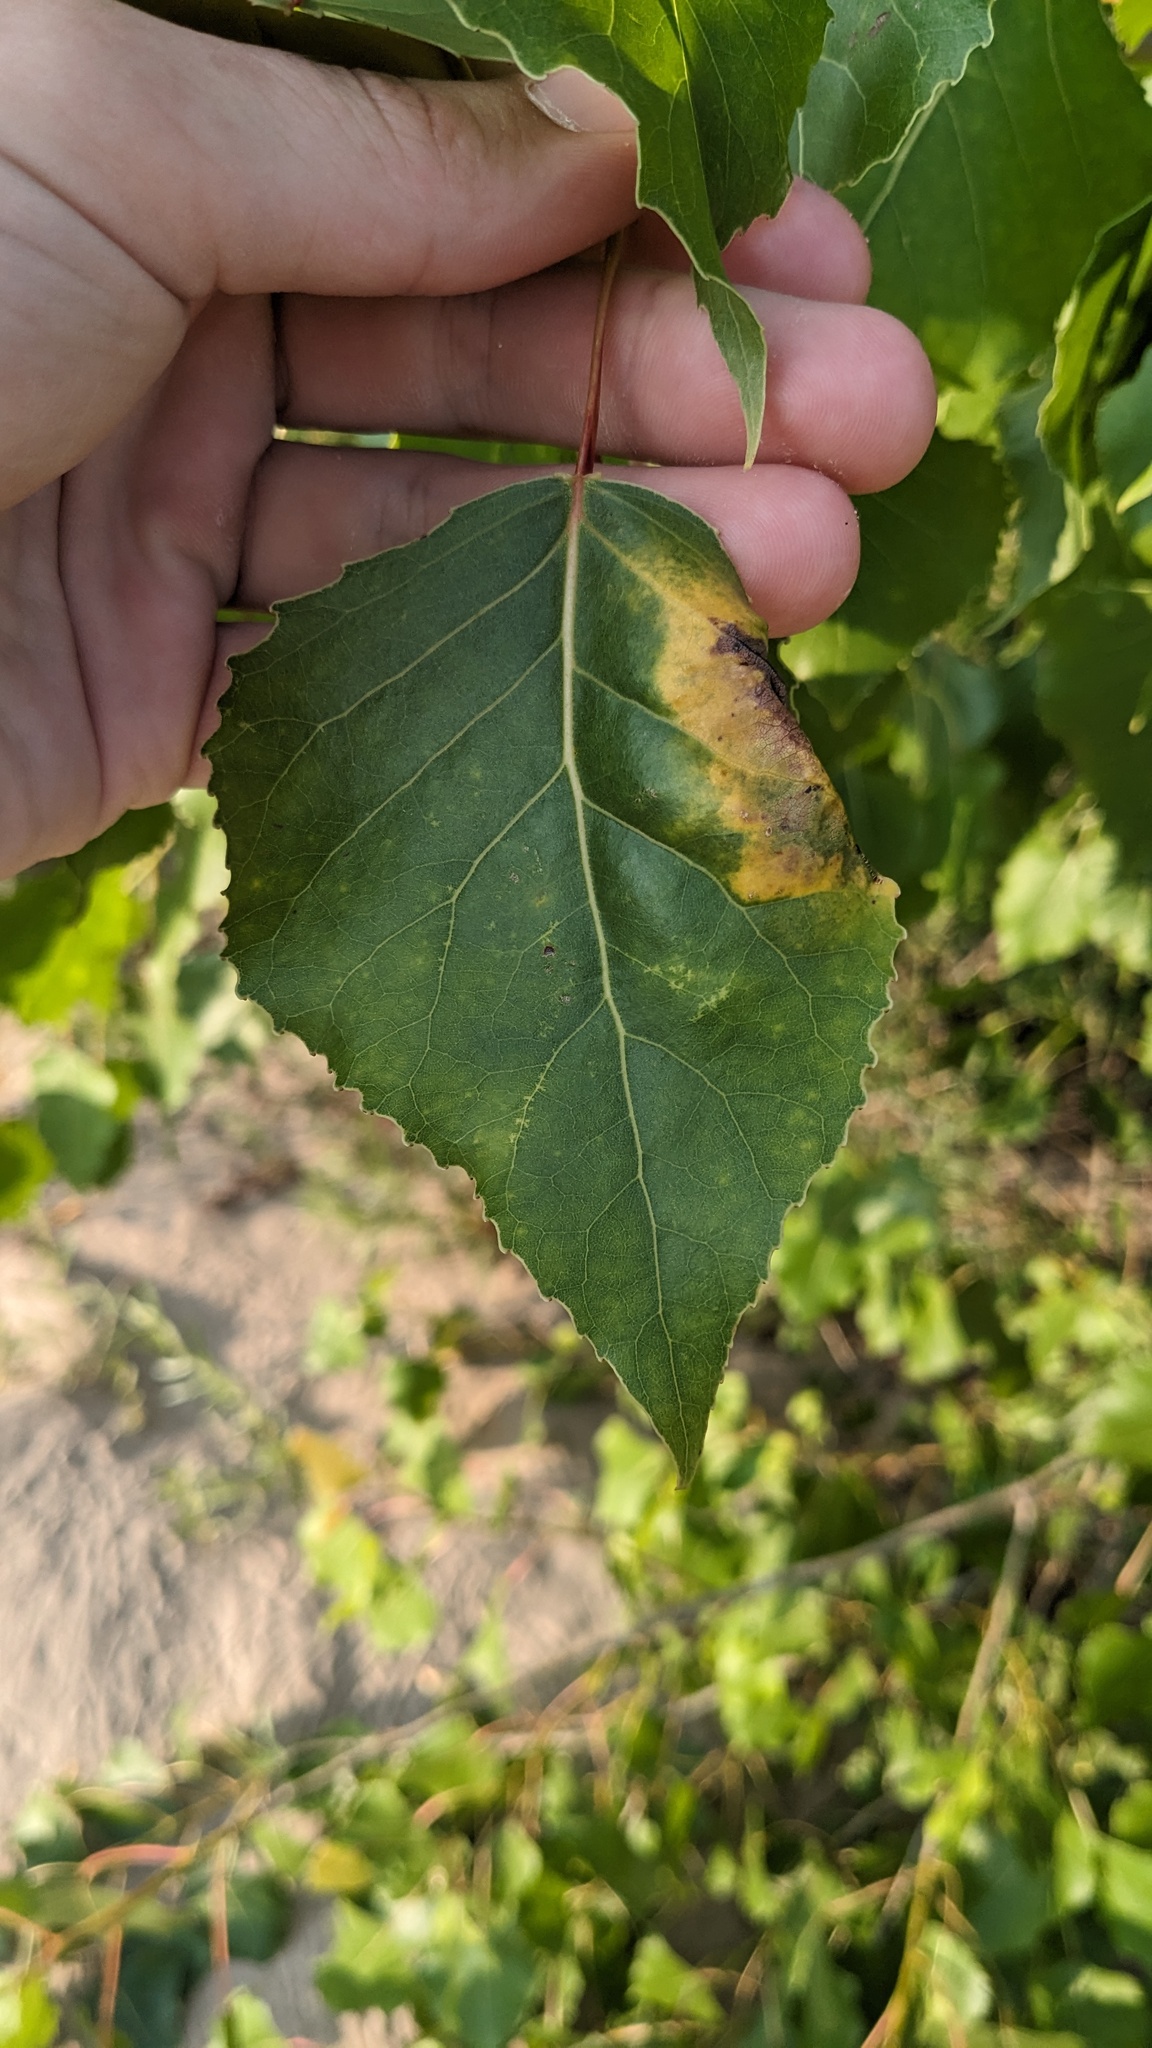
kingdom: Fungi
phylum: Ascomycota
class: Taphrinomycetes
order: Taphrinales
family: Taphrinaceae
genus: Taphrina
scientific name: Taphrina populina
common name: Poplar leaf curl
